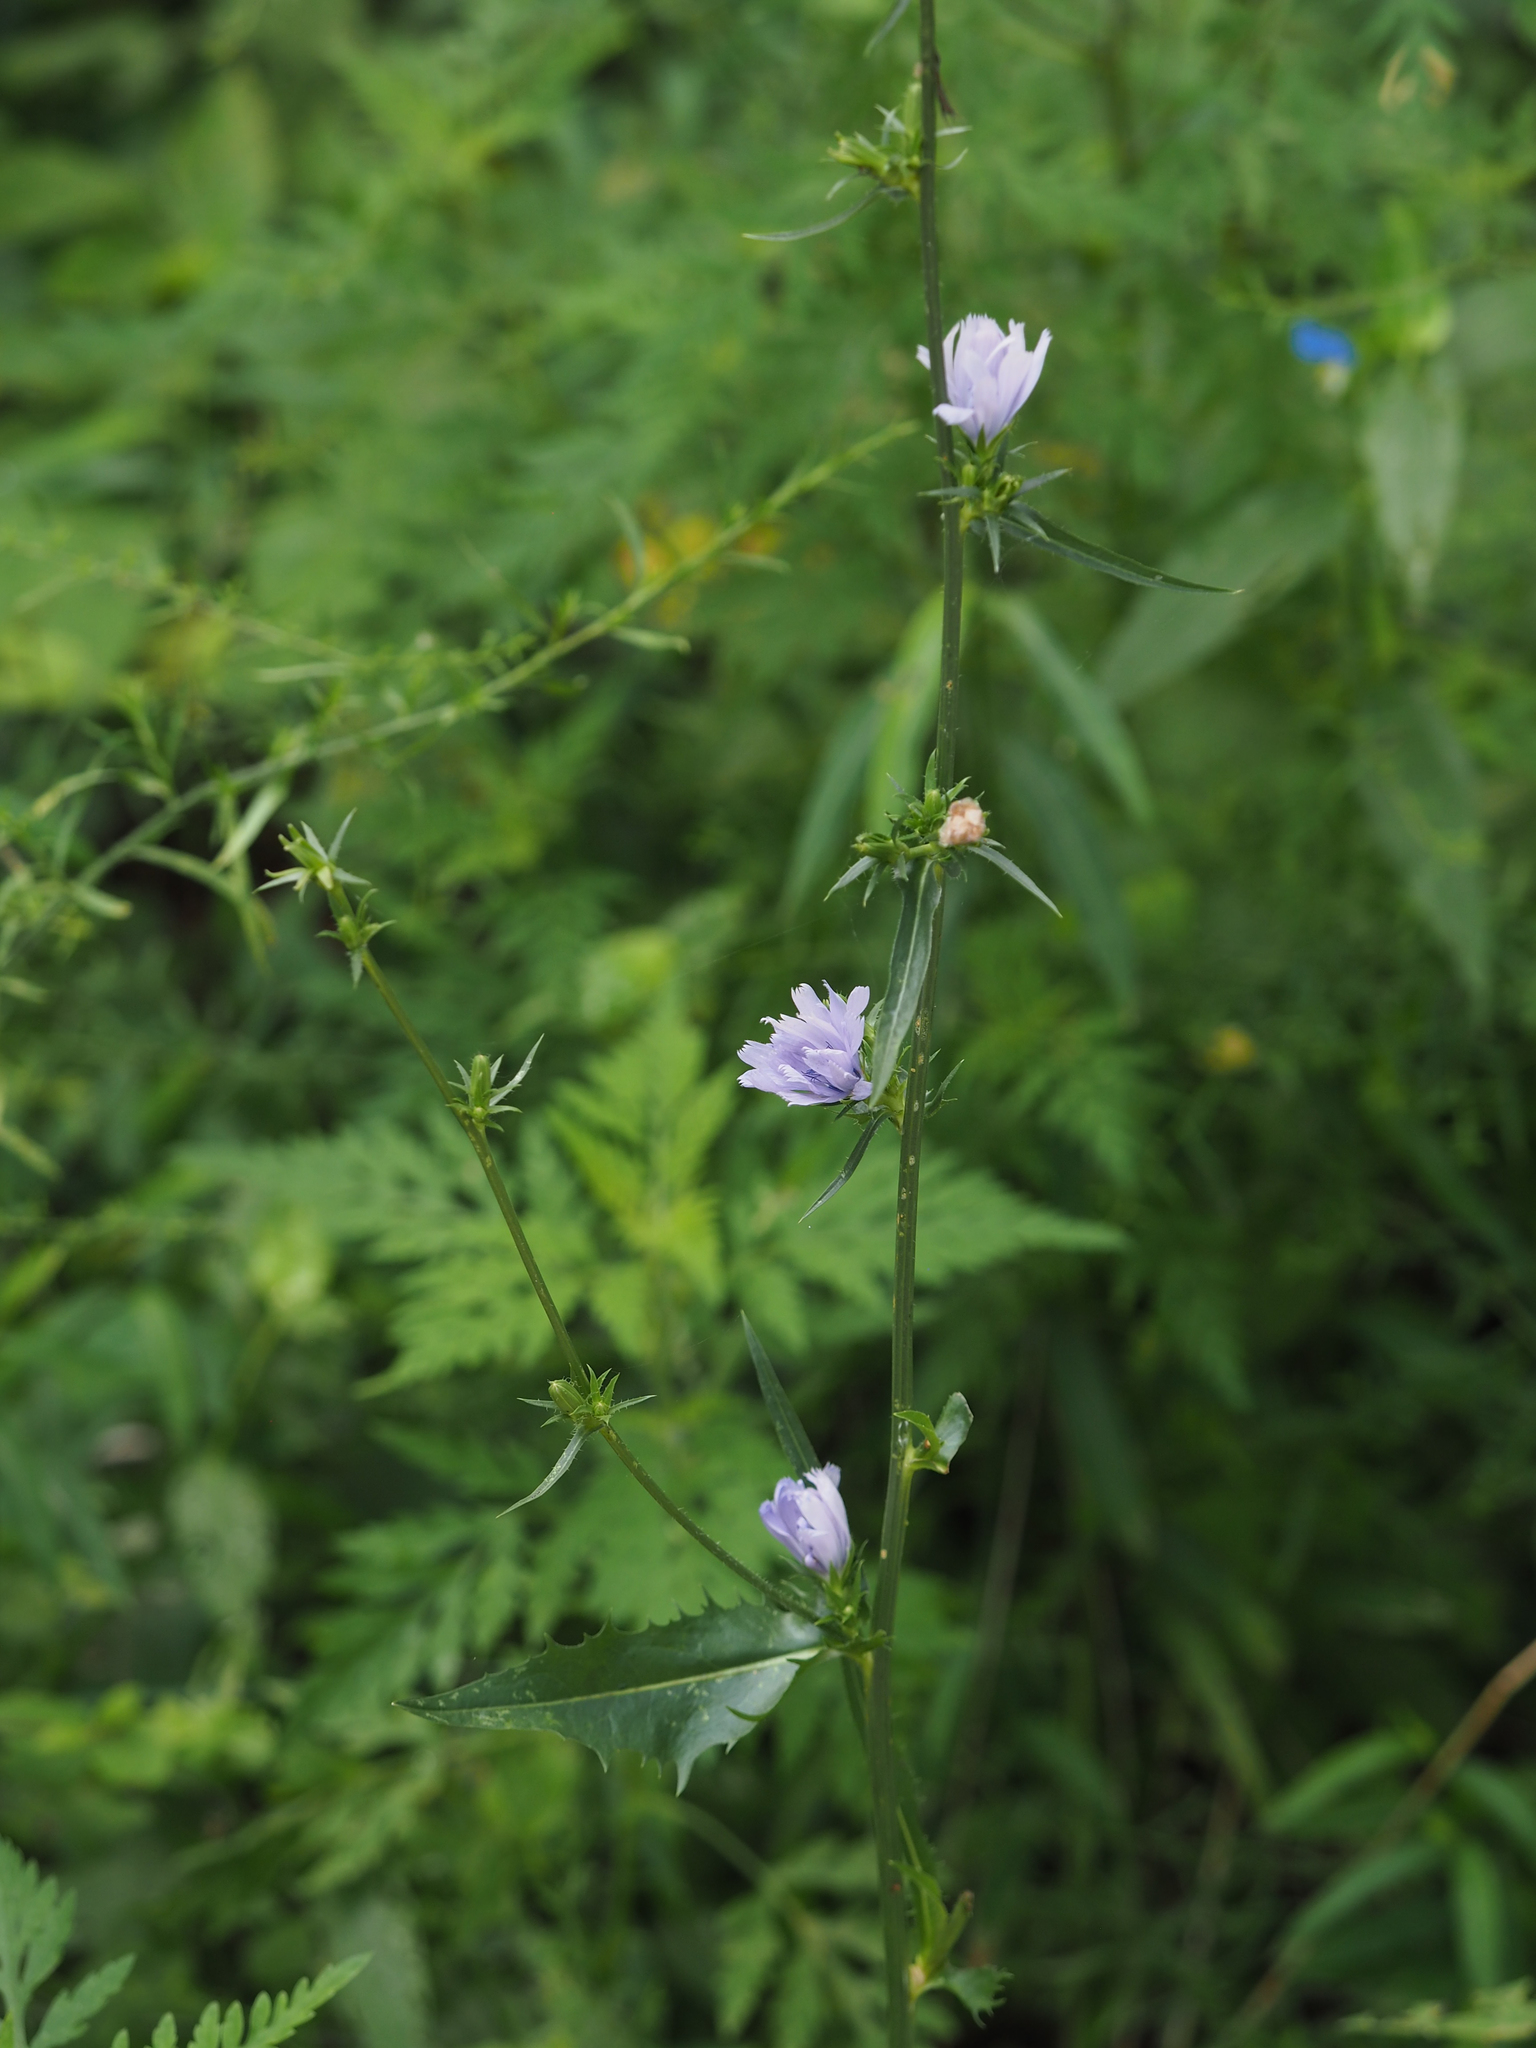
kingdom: Plantae
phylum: Tracheophyta
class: Magnoliopsida
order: Asterales
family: Asteraceae
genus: Cichorium
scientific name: Cichorium intybus
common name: Chicory
